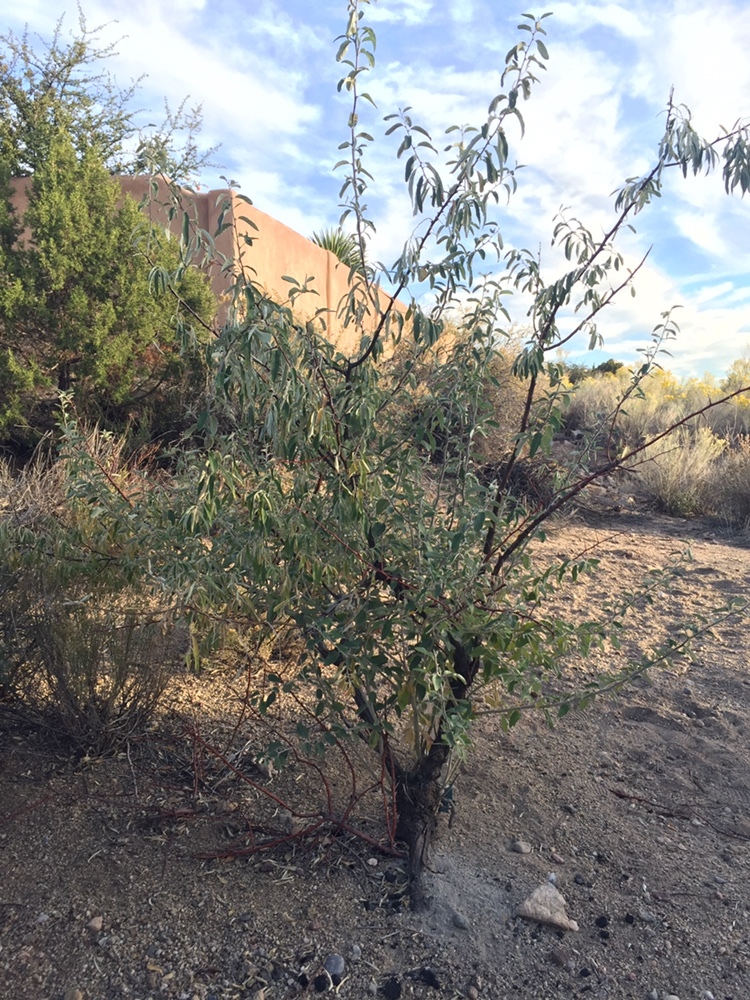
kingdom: Plantae
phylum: Tracheophyta
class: Magnoliopsida
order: Rosales
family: Elaeagnaceae
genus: Elaeagnus
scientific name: Elaeagnus angustifolia
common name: Russian olive
